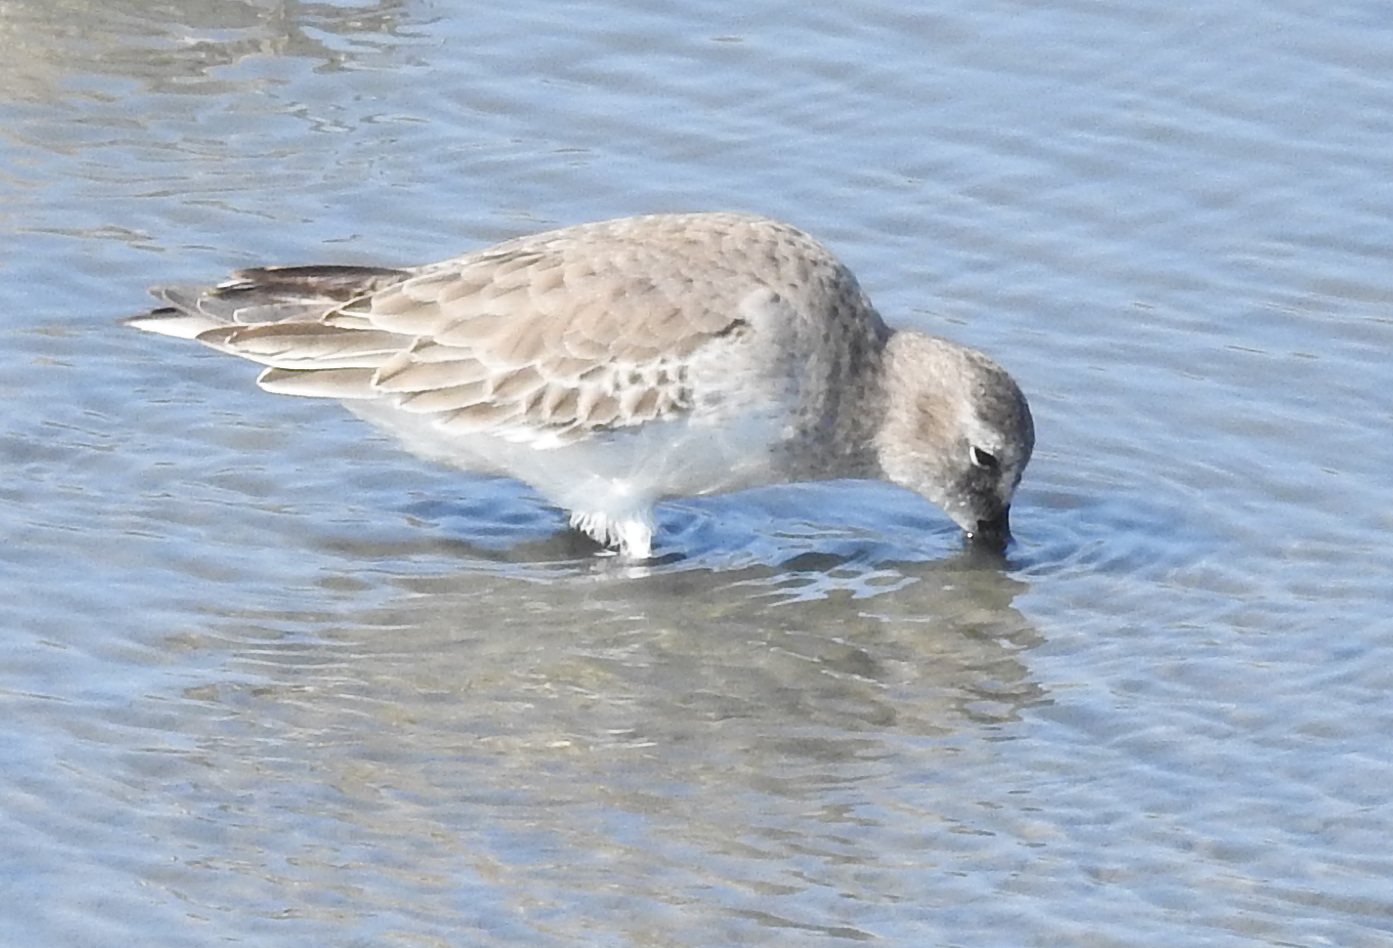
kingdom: Animalia
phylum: Chordata
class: Aves
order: Charadriiformes
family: Scolopacidae
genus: Calidris
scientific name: Calidris alpina
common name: Dunlin
